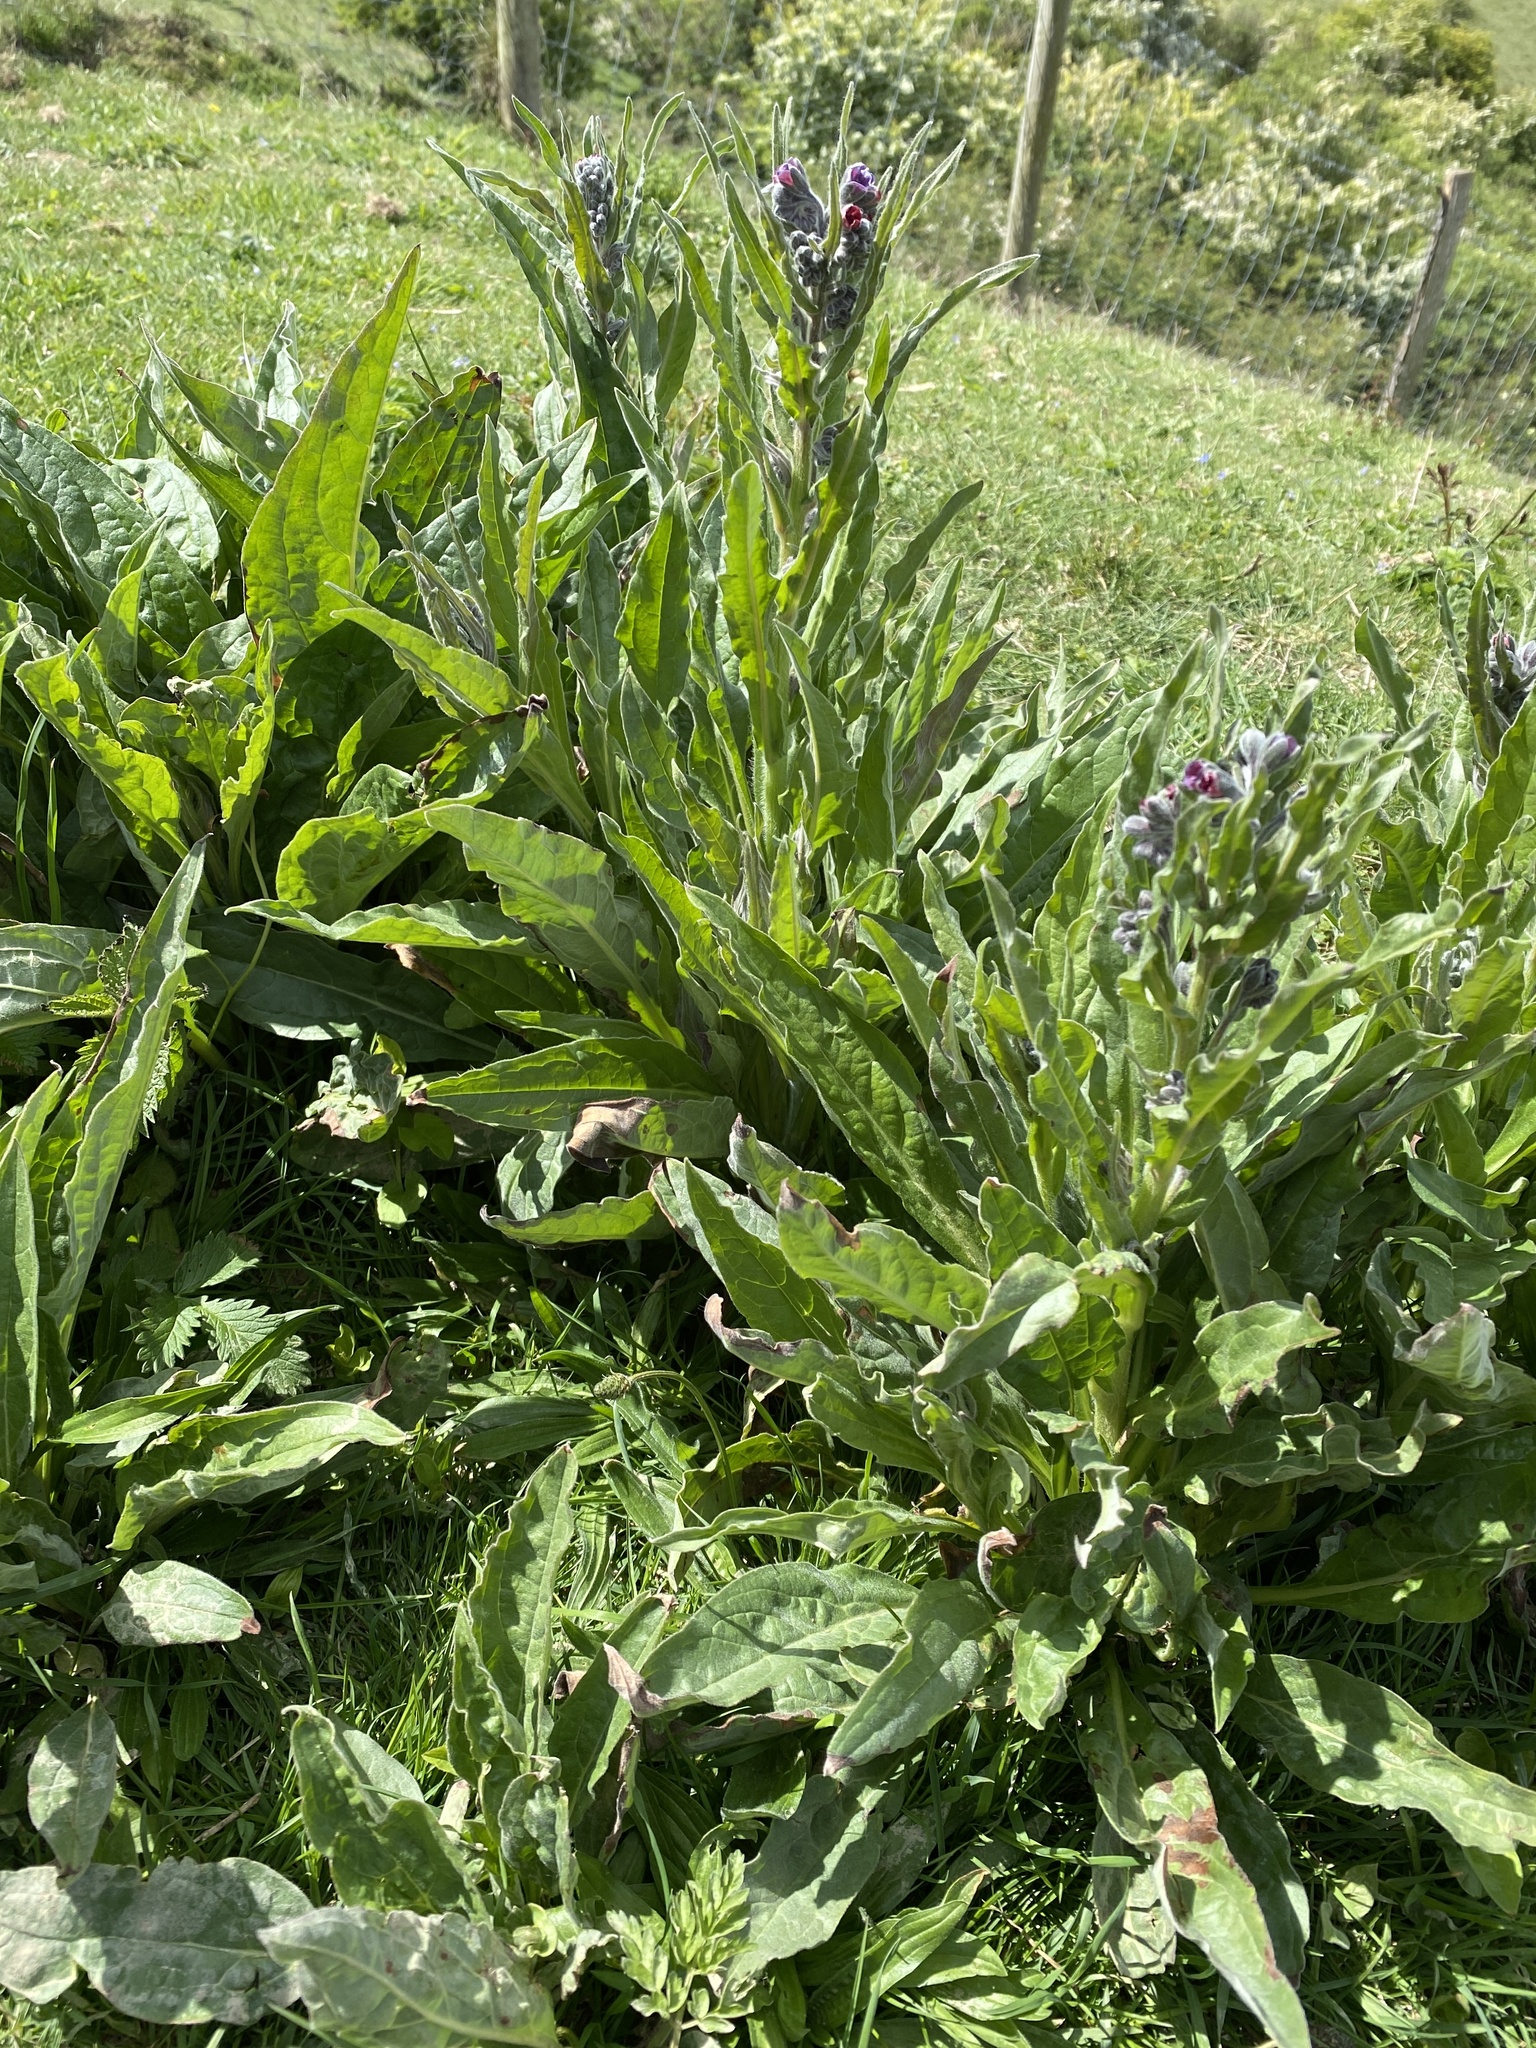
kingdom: Plantae
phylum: Tracheophyta
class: Magnoliopsida
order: Boraginales
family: Boraginaceae
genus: Cynoglossum
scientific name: Cynoglossum officinale
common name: Hound's-tongue
